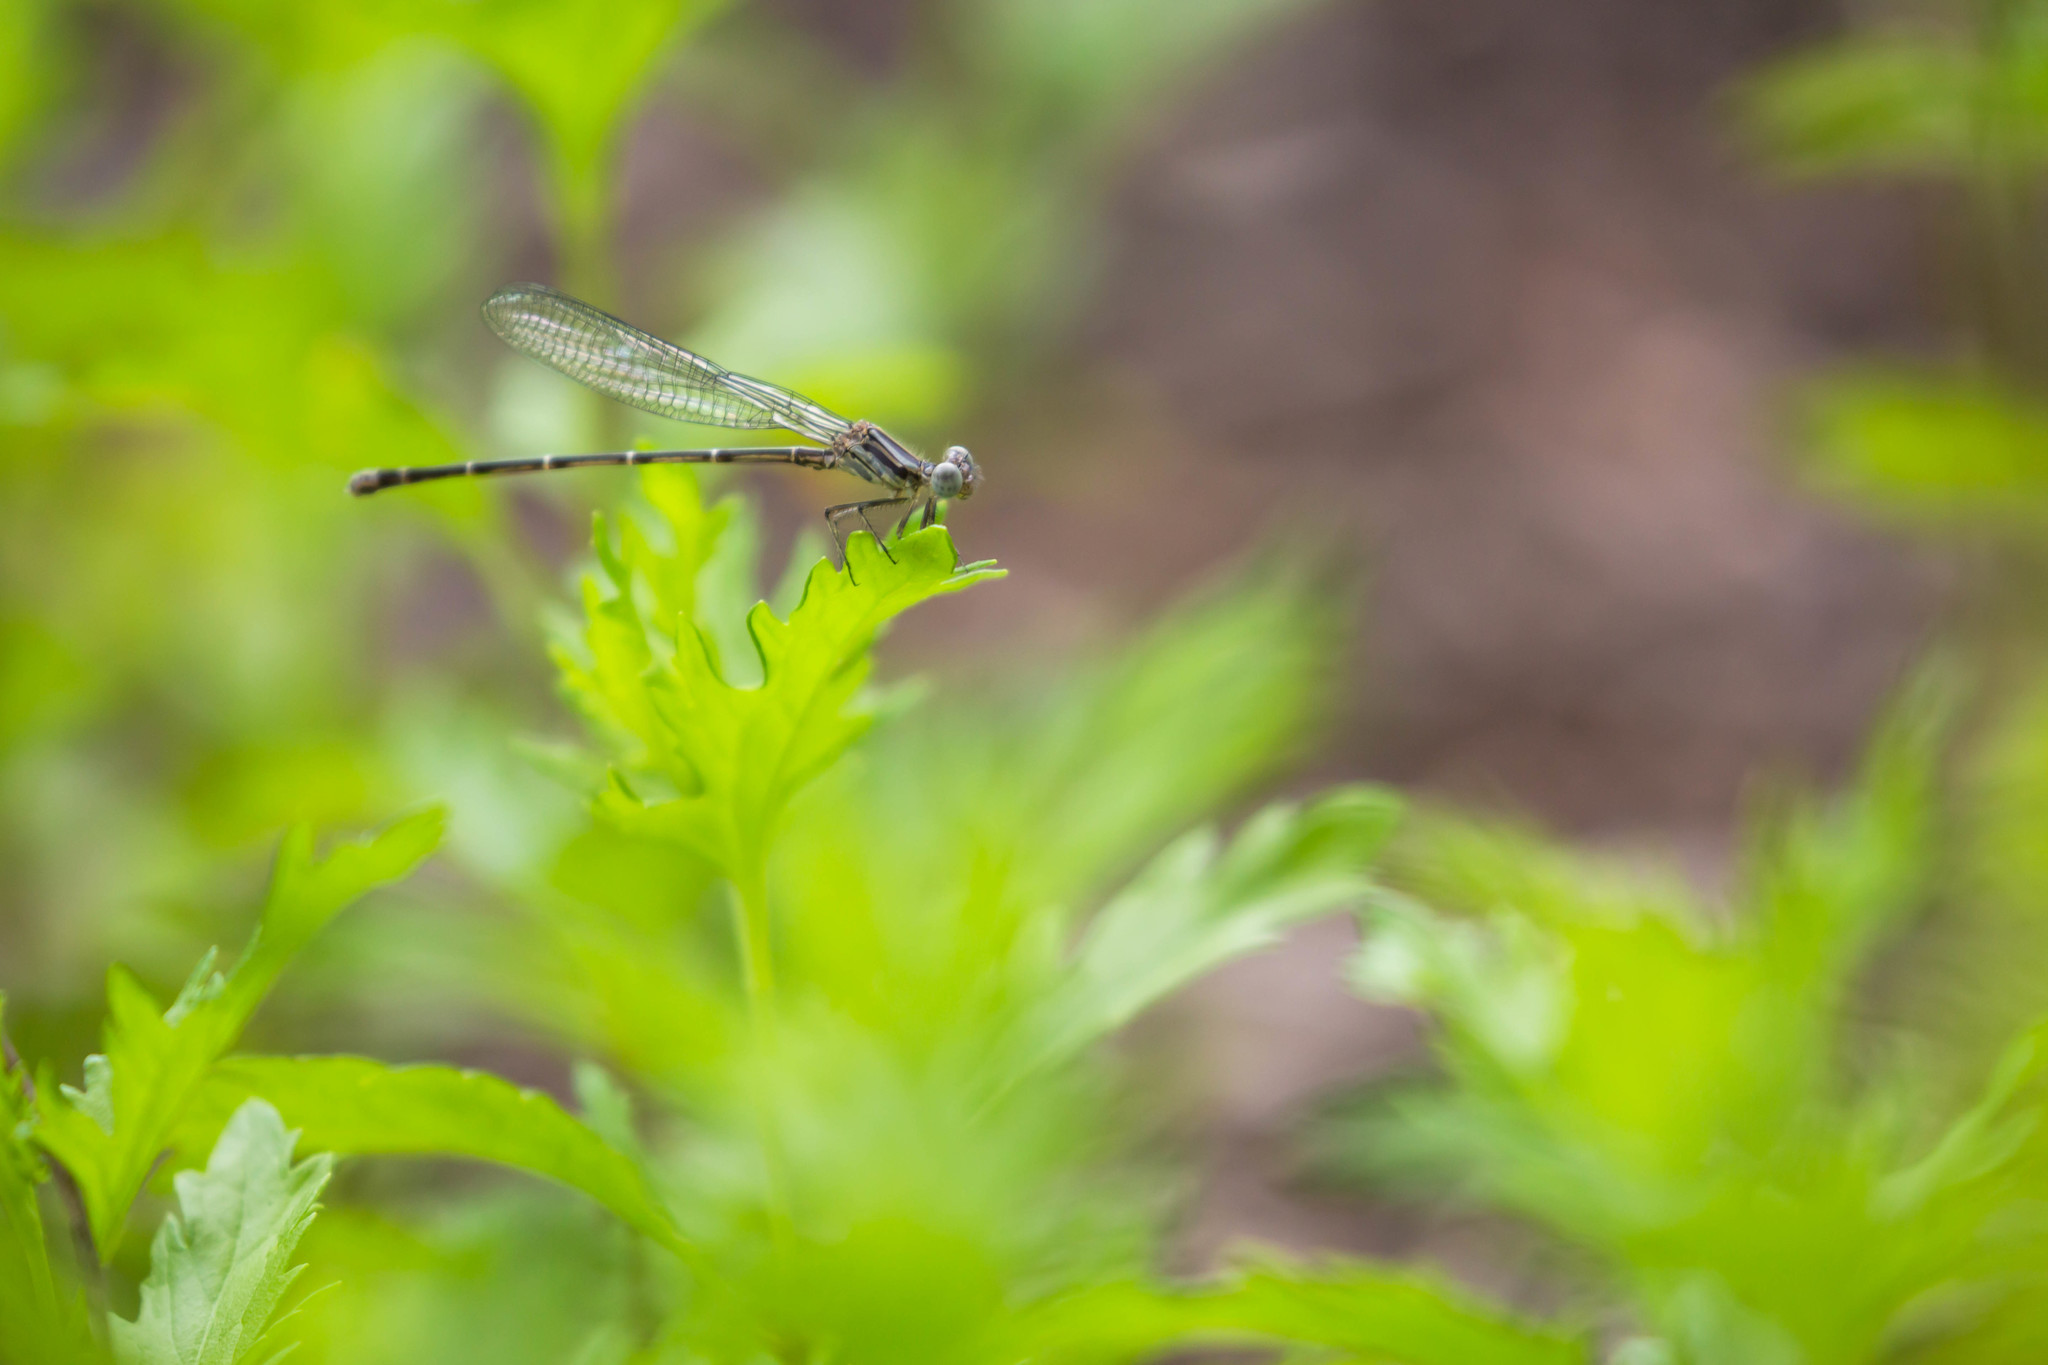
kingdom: Animalia
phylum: Arthropoda
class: Insecta
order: Odonata
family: Coenagrionidae
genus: Argia
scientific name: Argia translata
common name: Dusky dancer
